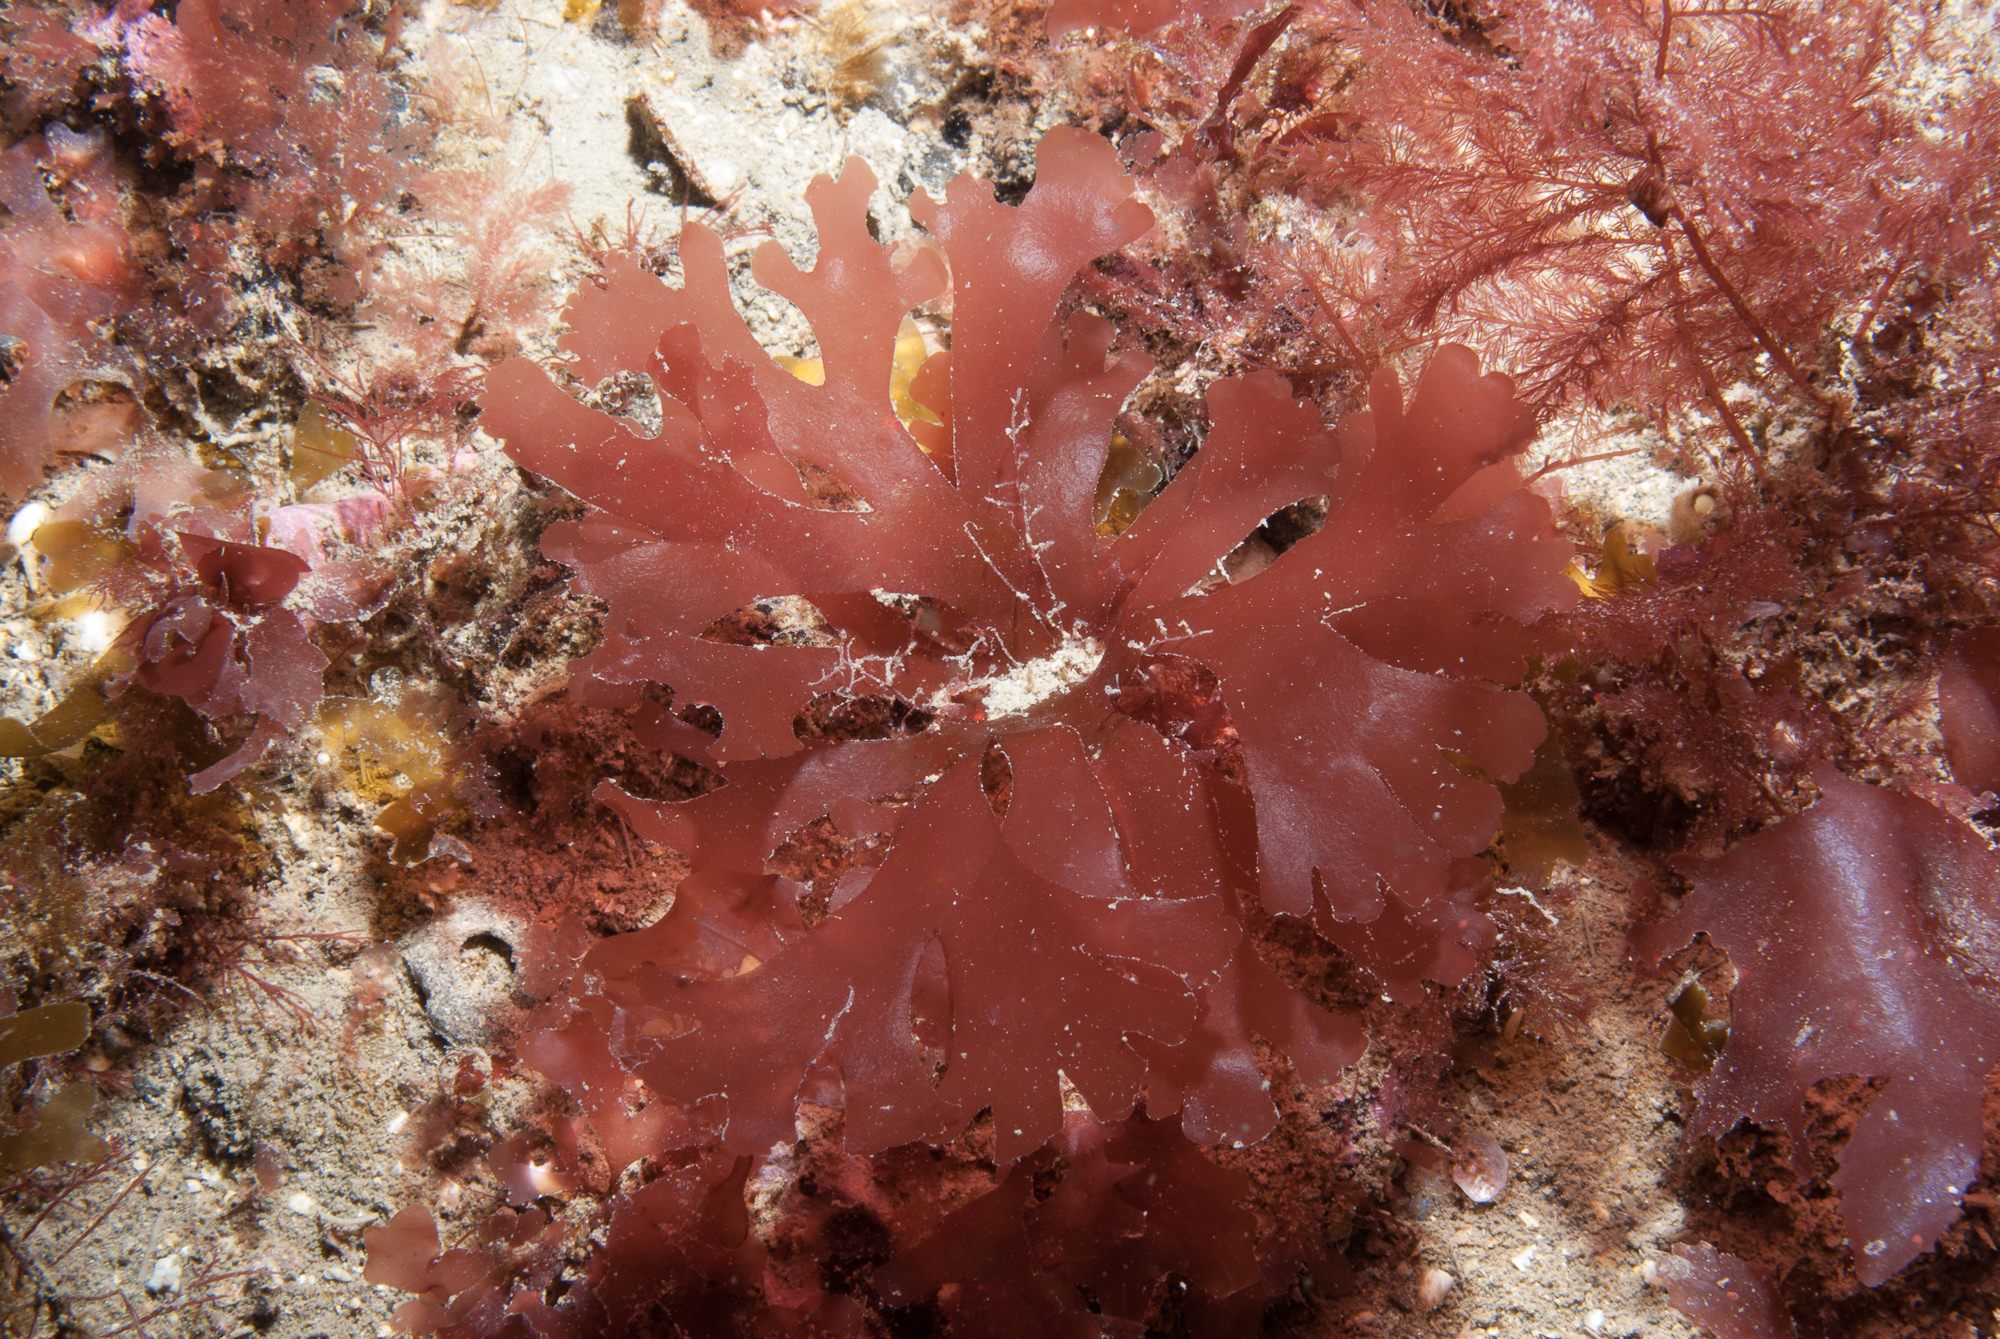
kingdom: Plantae
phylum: Rhodophyta
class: Florideophyceae
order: Gigartinales
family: Cystocloniaceae
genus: Rhodophyllis
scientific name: Rhodophyllis divaricata
